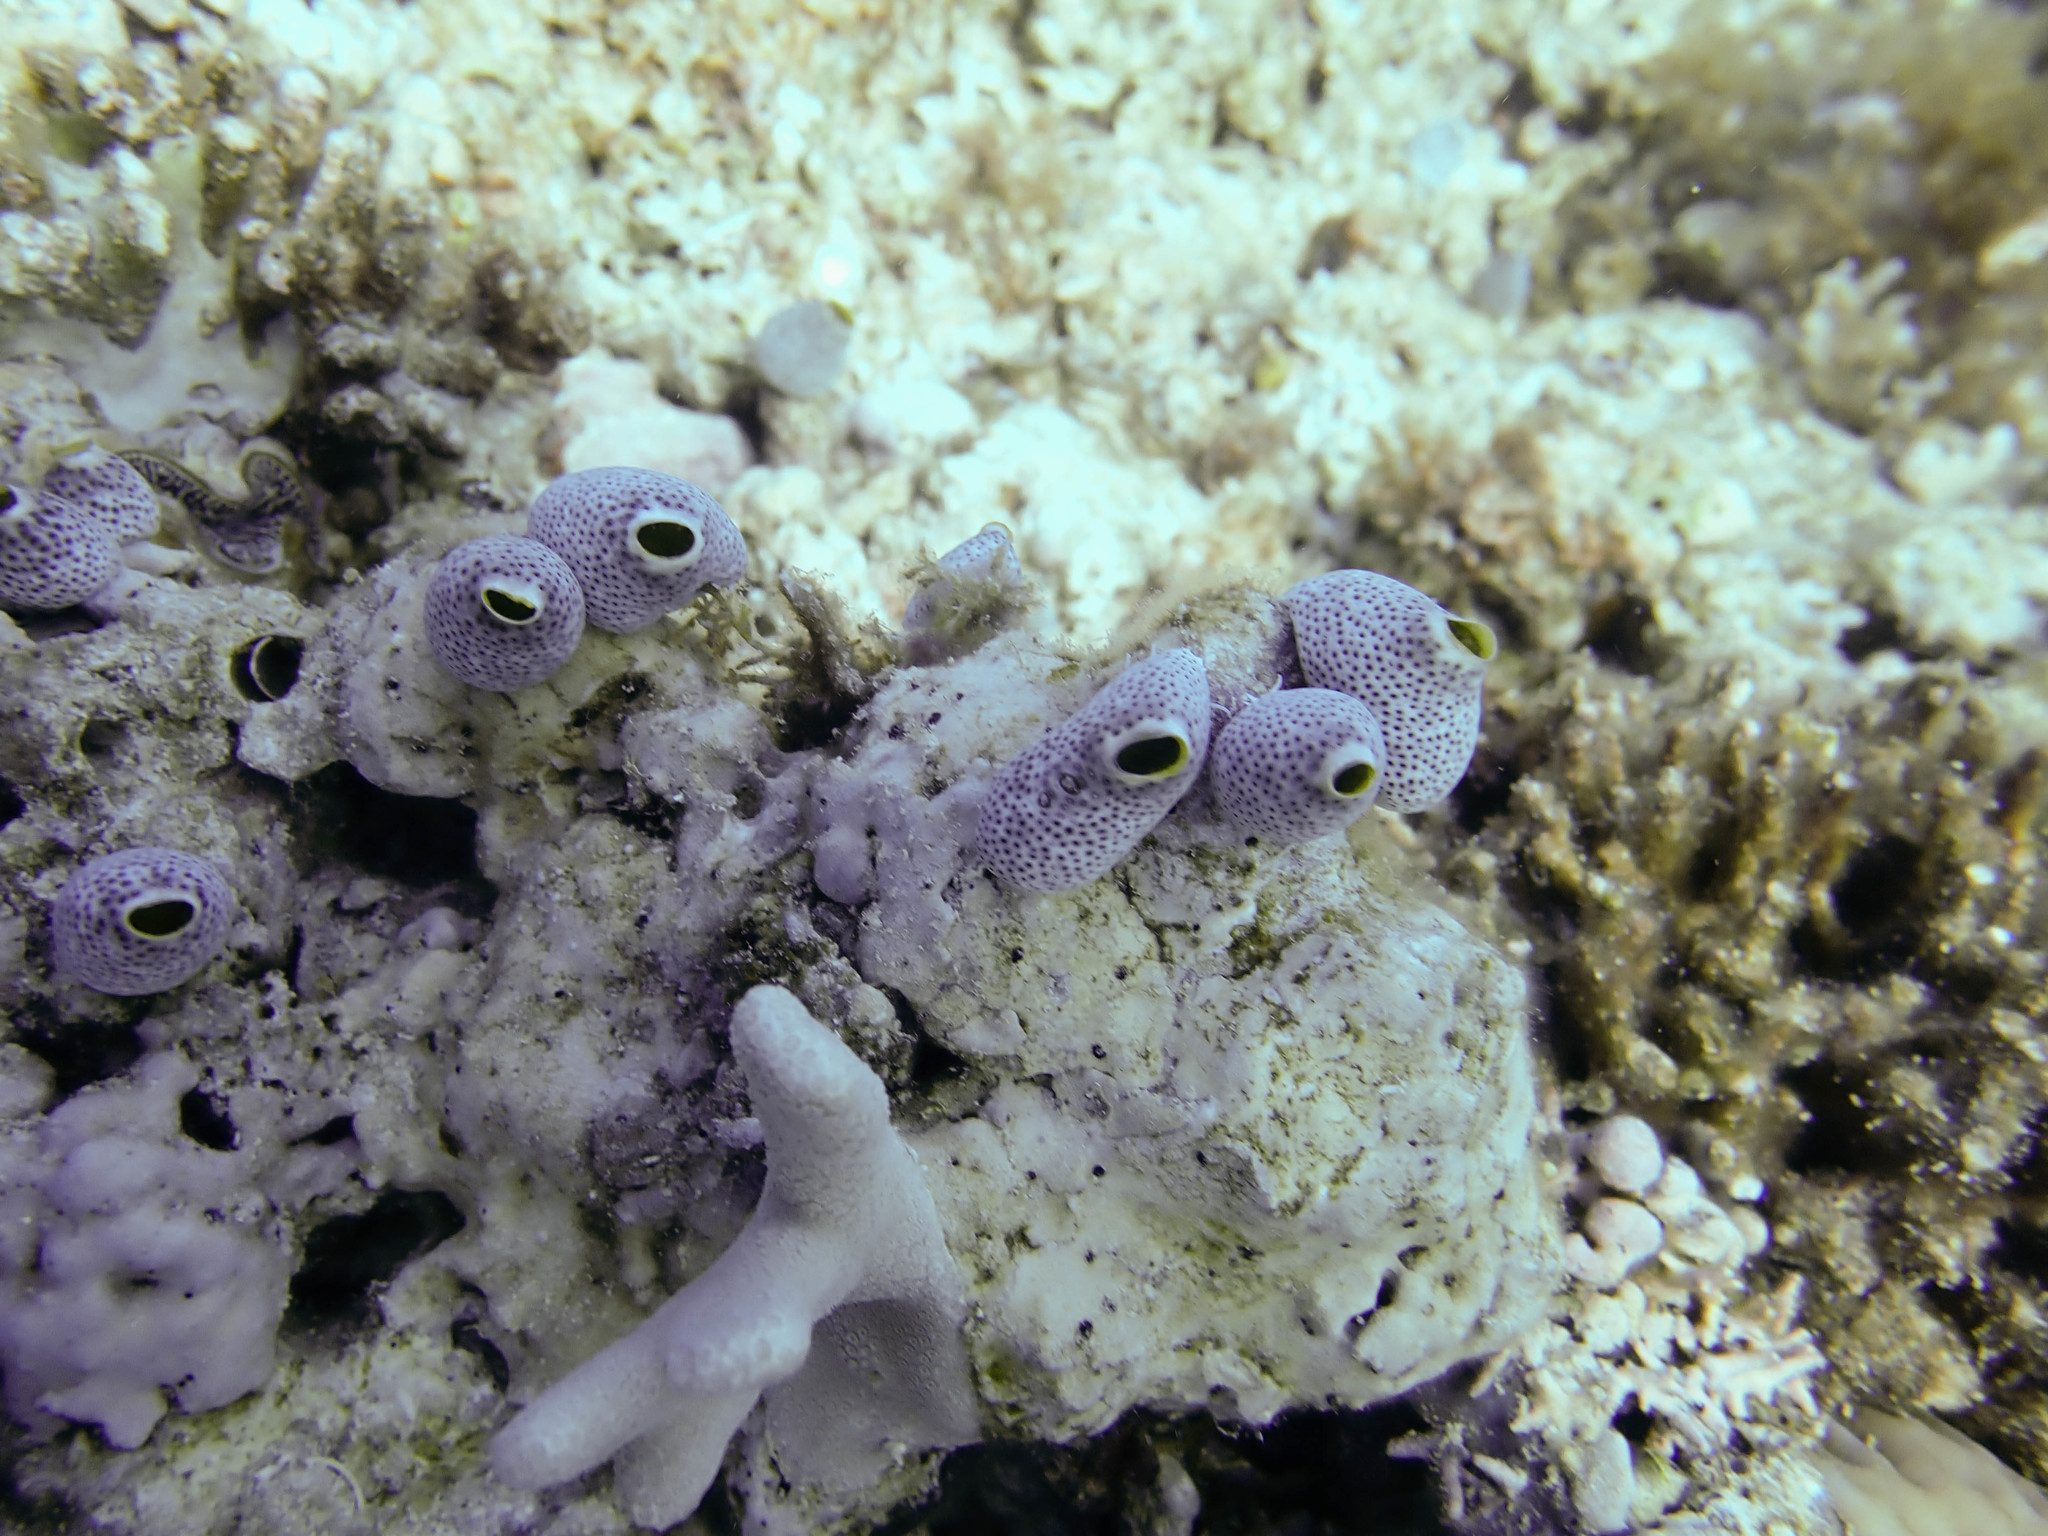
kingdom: Animalia
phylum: Chordata
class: Ascidiacea
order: Aplousobranchia
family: Didemnidae
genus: Didemnum
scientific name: Didemnum molle
